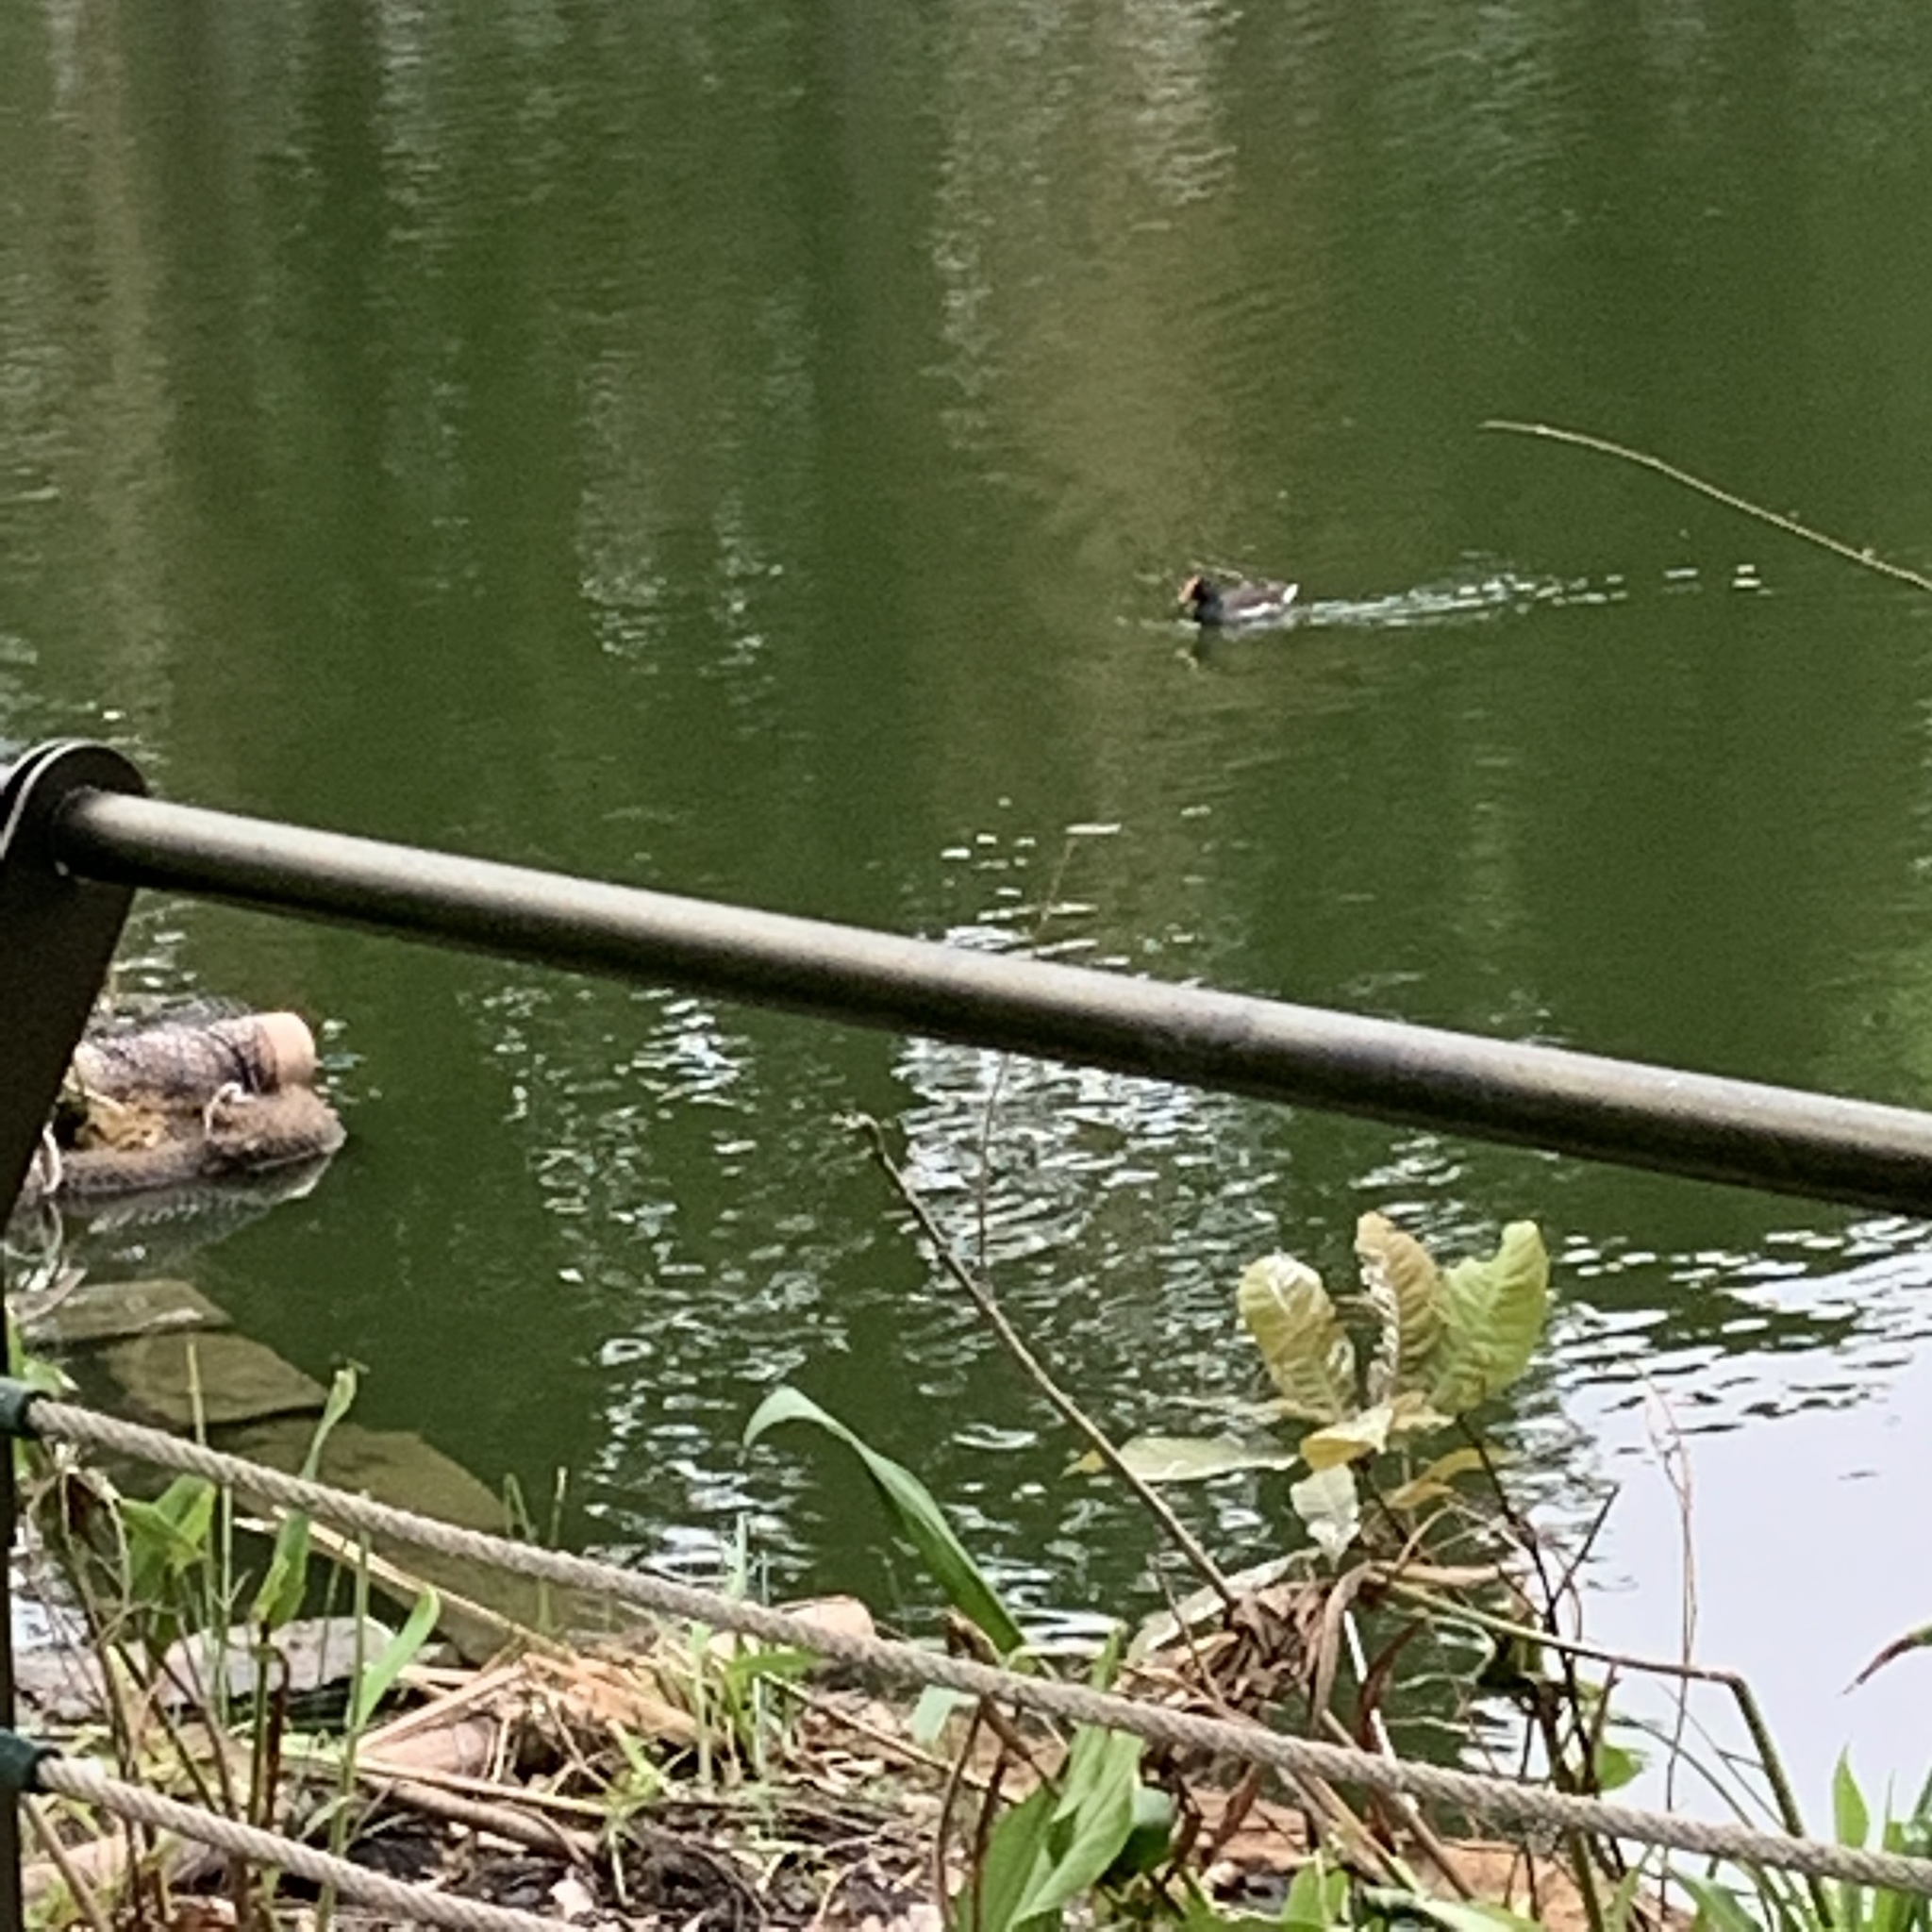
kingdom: Animalia
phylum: Chordata
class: Aves
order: Gruiformes
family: Rallidae
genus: Gallinula
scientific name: Gallinula chloropus
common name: Common moorhen
